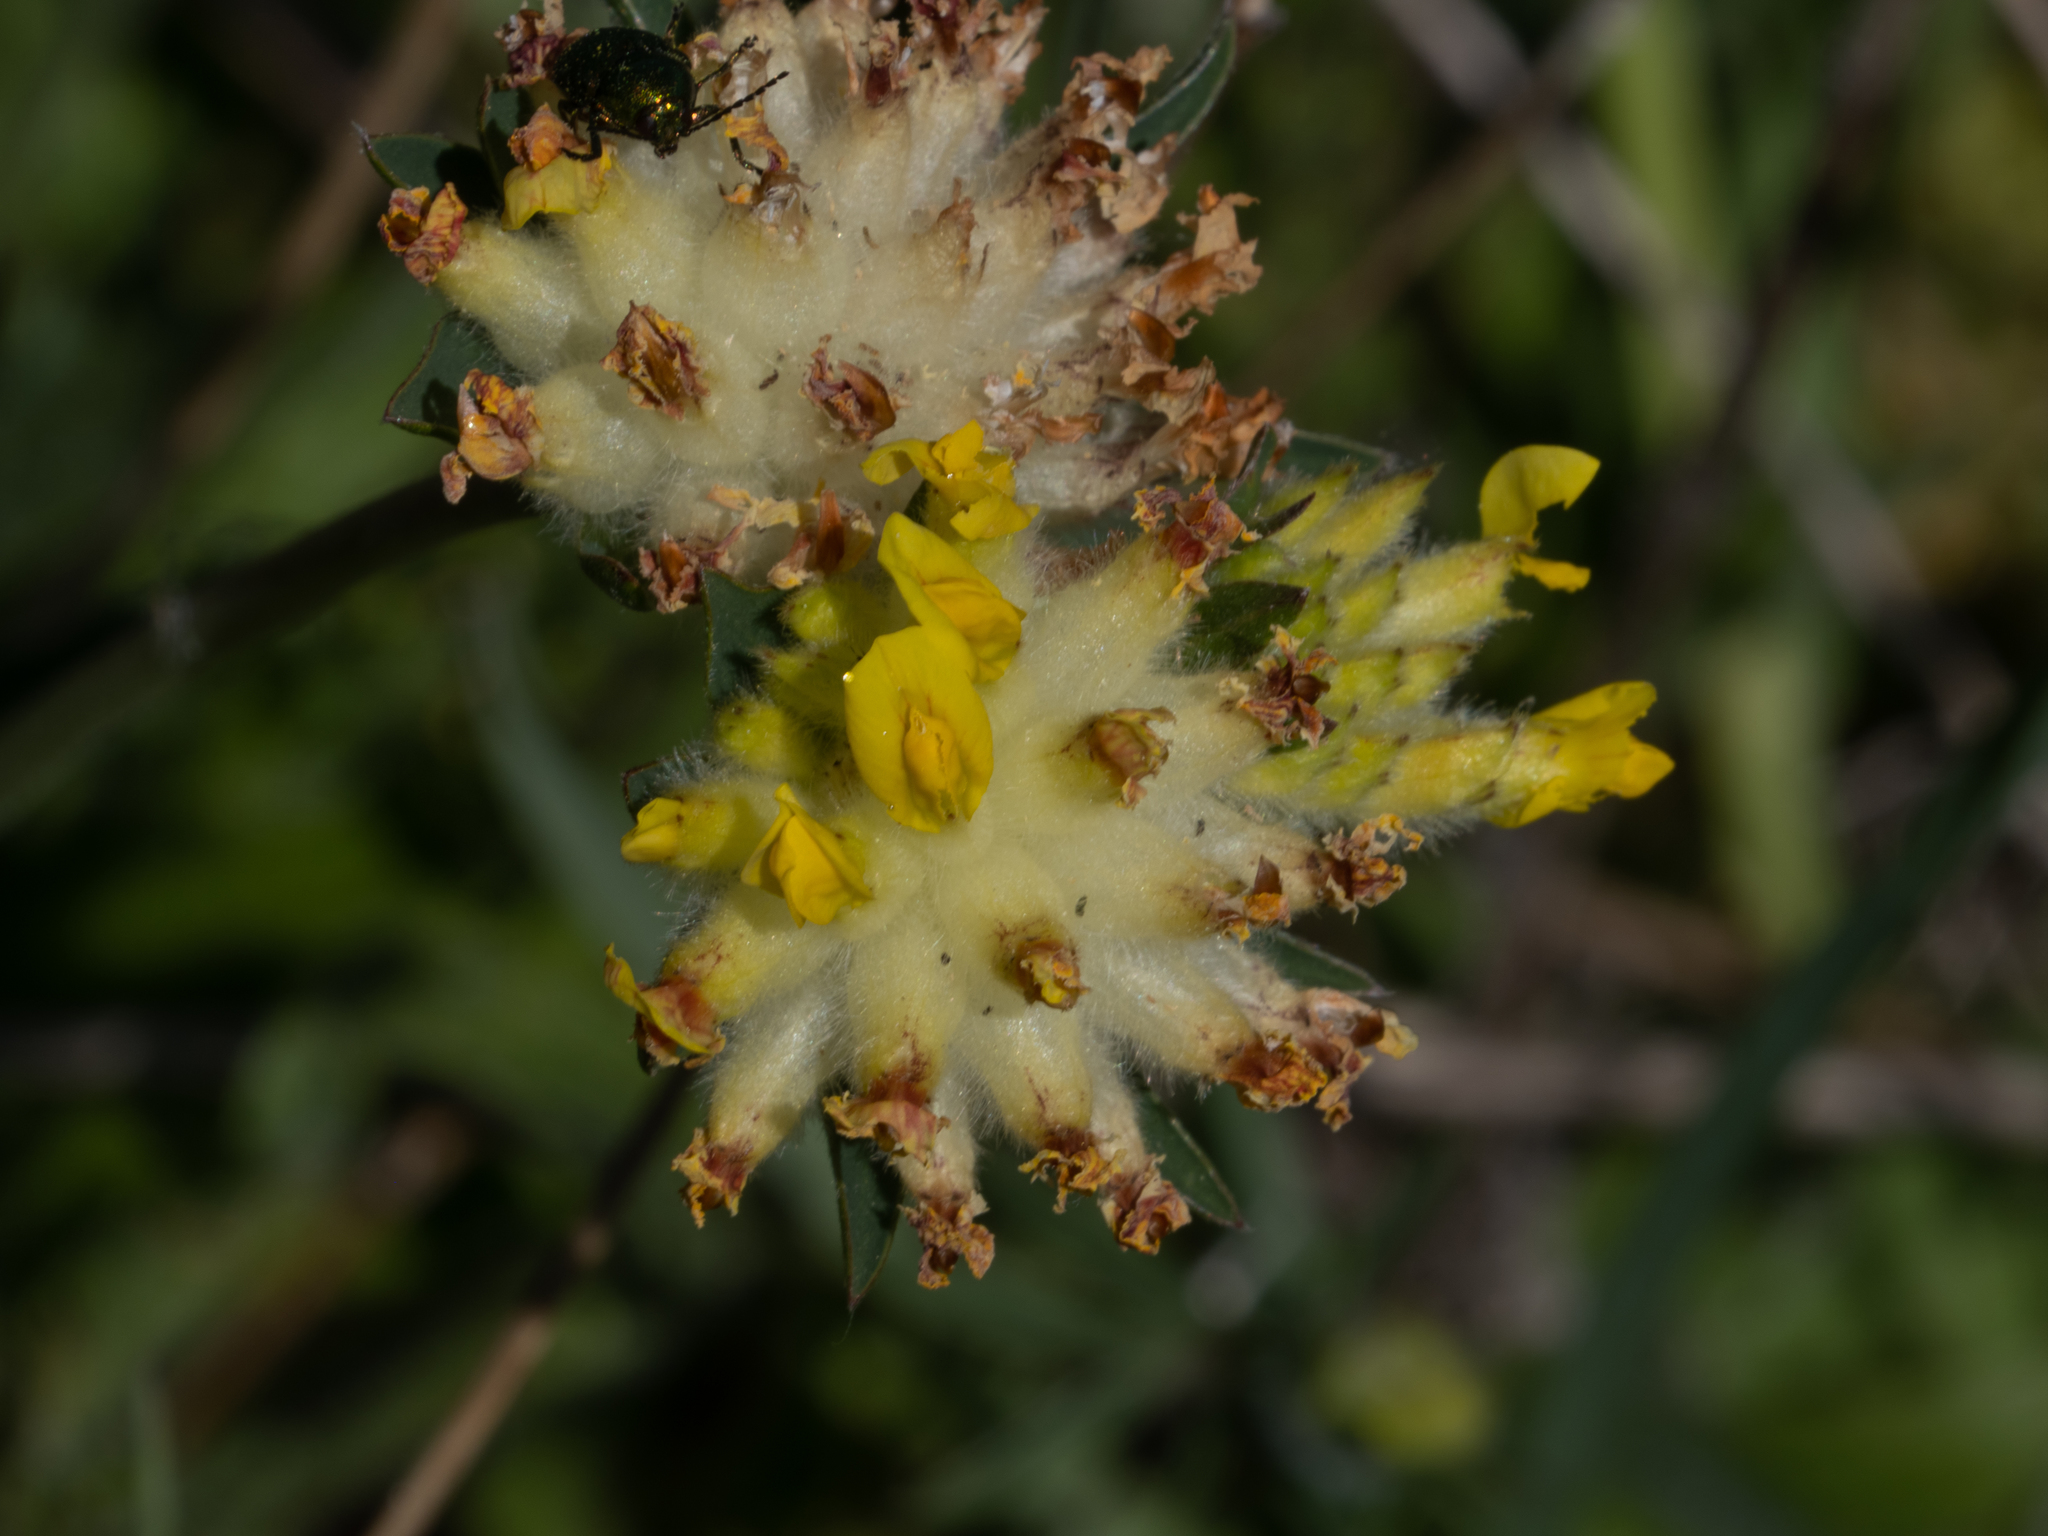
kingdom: Plantae
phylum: Tracheophyta
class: Magnoliopsida
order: Fabales
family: Fabaceae
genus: Anthyllis
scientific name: Anthyllis vulneraria
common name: Kidney vetch
